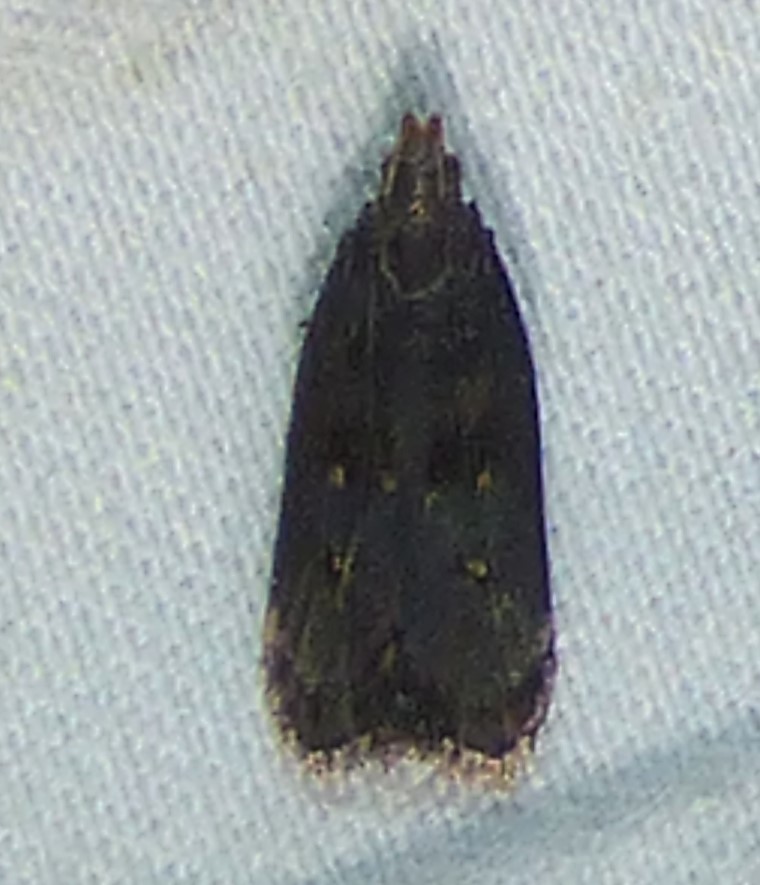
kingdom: Animalia
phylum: Arthropoda
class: Insecta
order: Lepidoptera
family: Gelechiidae
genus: Dichomeris
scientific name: Dichomeris juncidella
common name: Orange-dotted dichomeris moth
